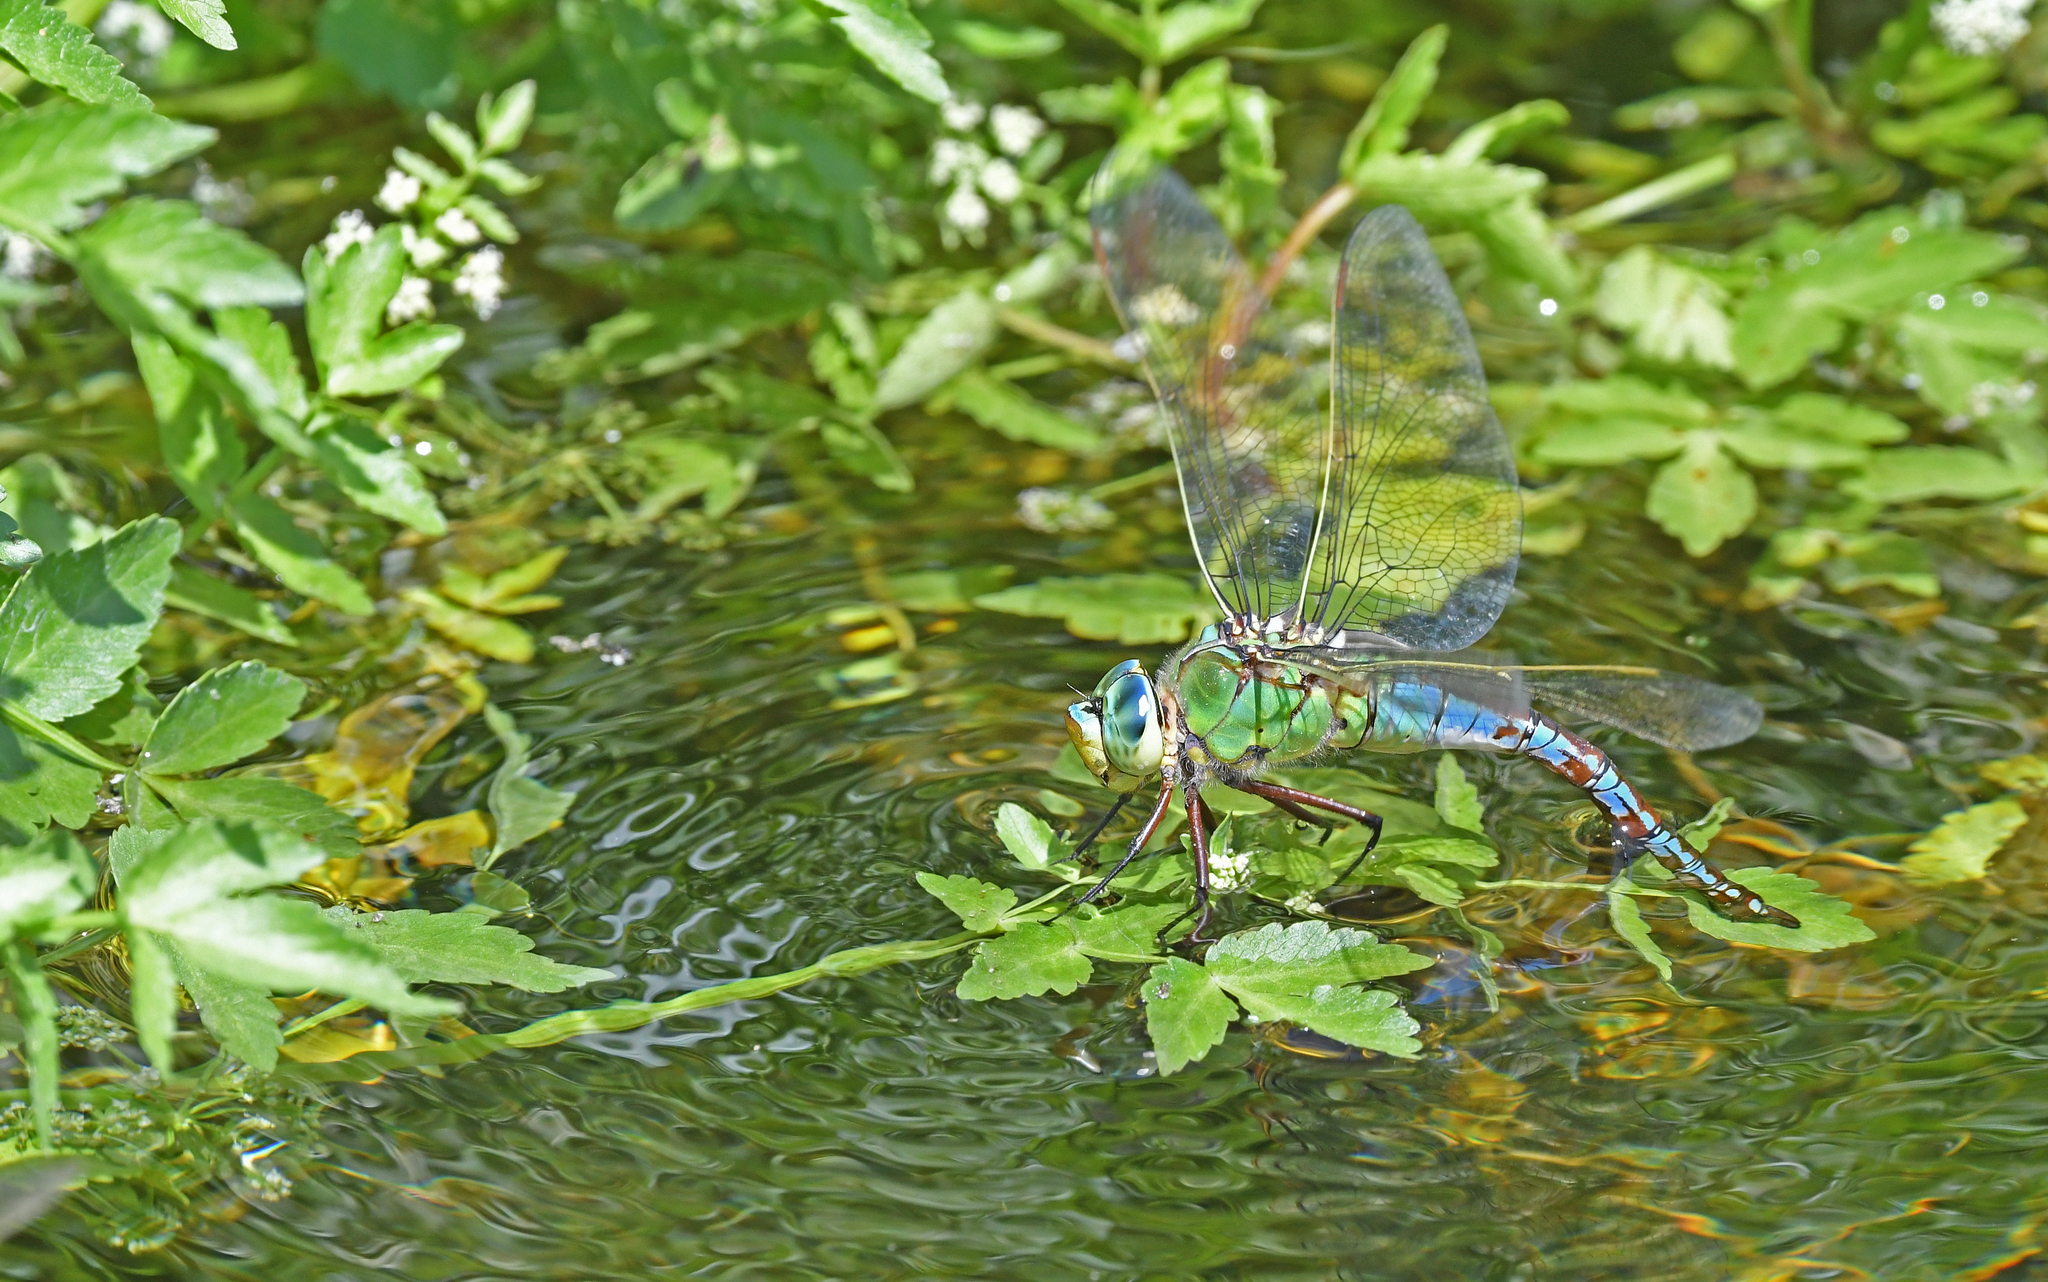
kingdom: Animalia
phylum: Arthropoda
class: Insecta
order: Odonata
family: Aeshnidae
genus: Anax
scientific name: Anax imperator
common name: Emperor dragonfly
